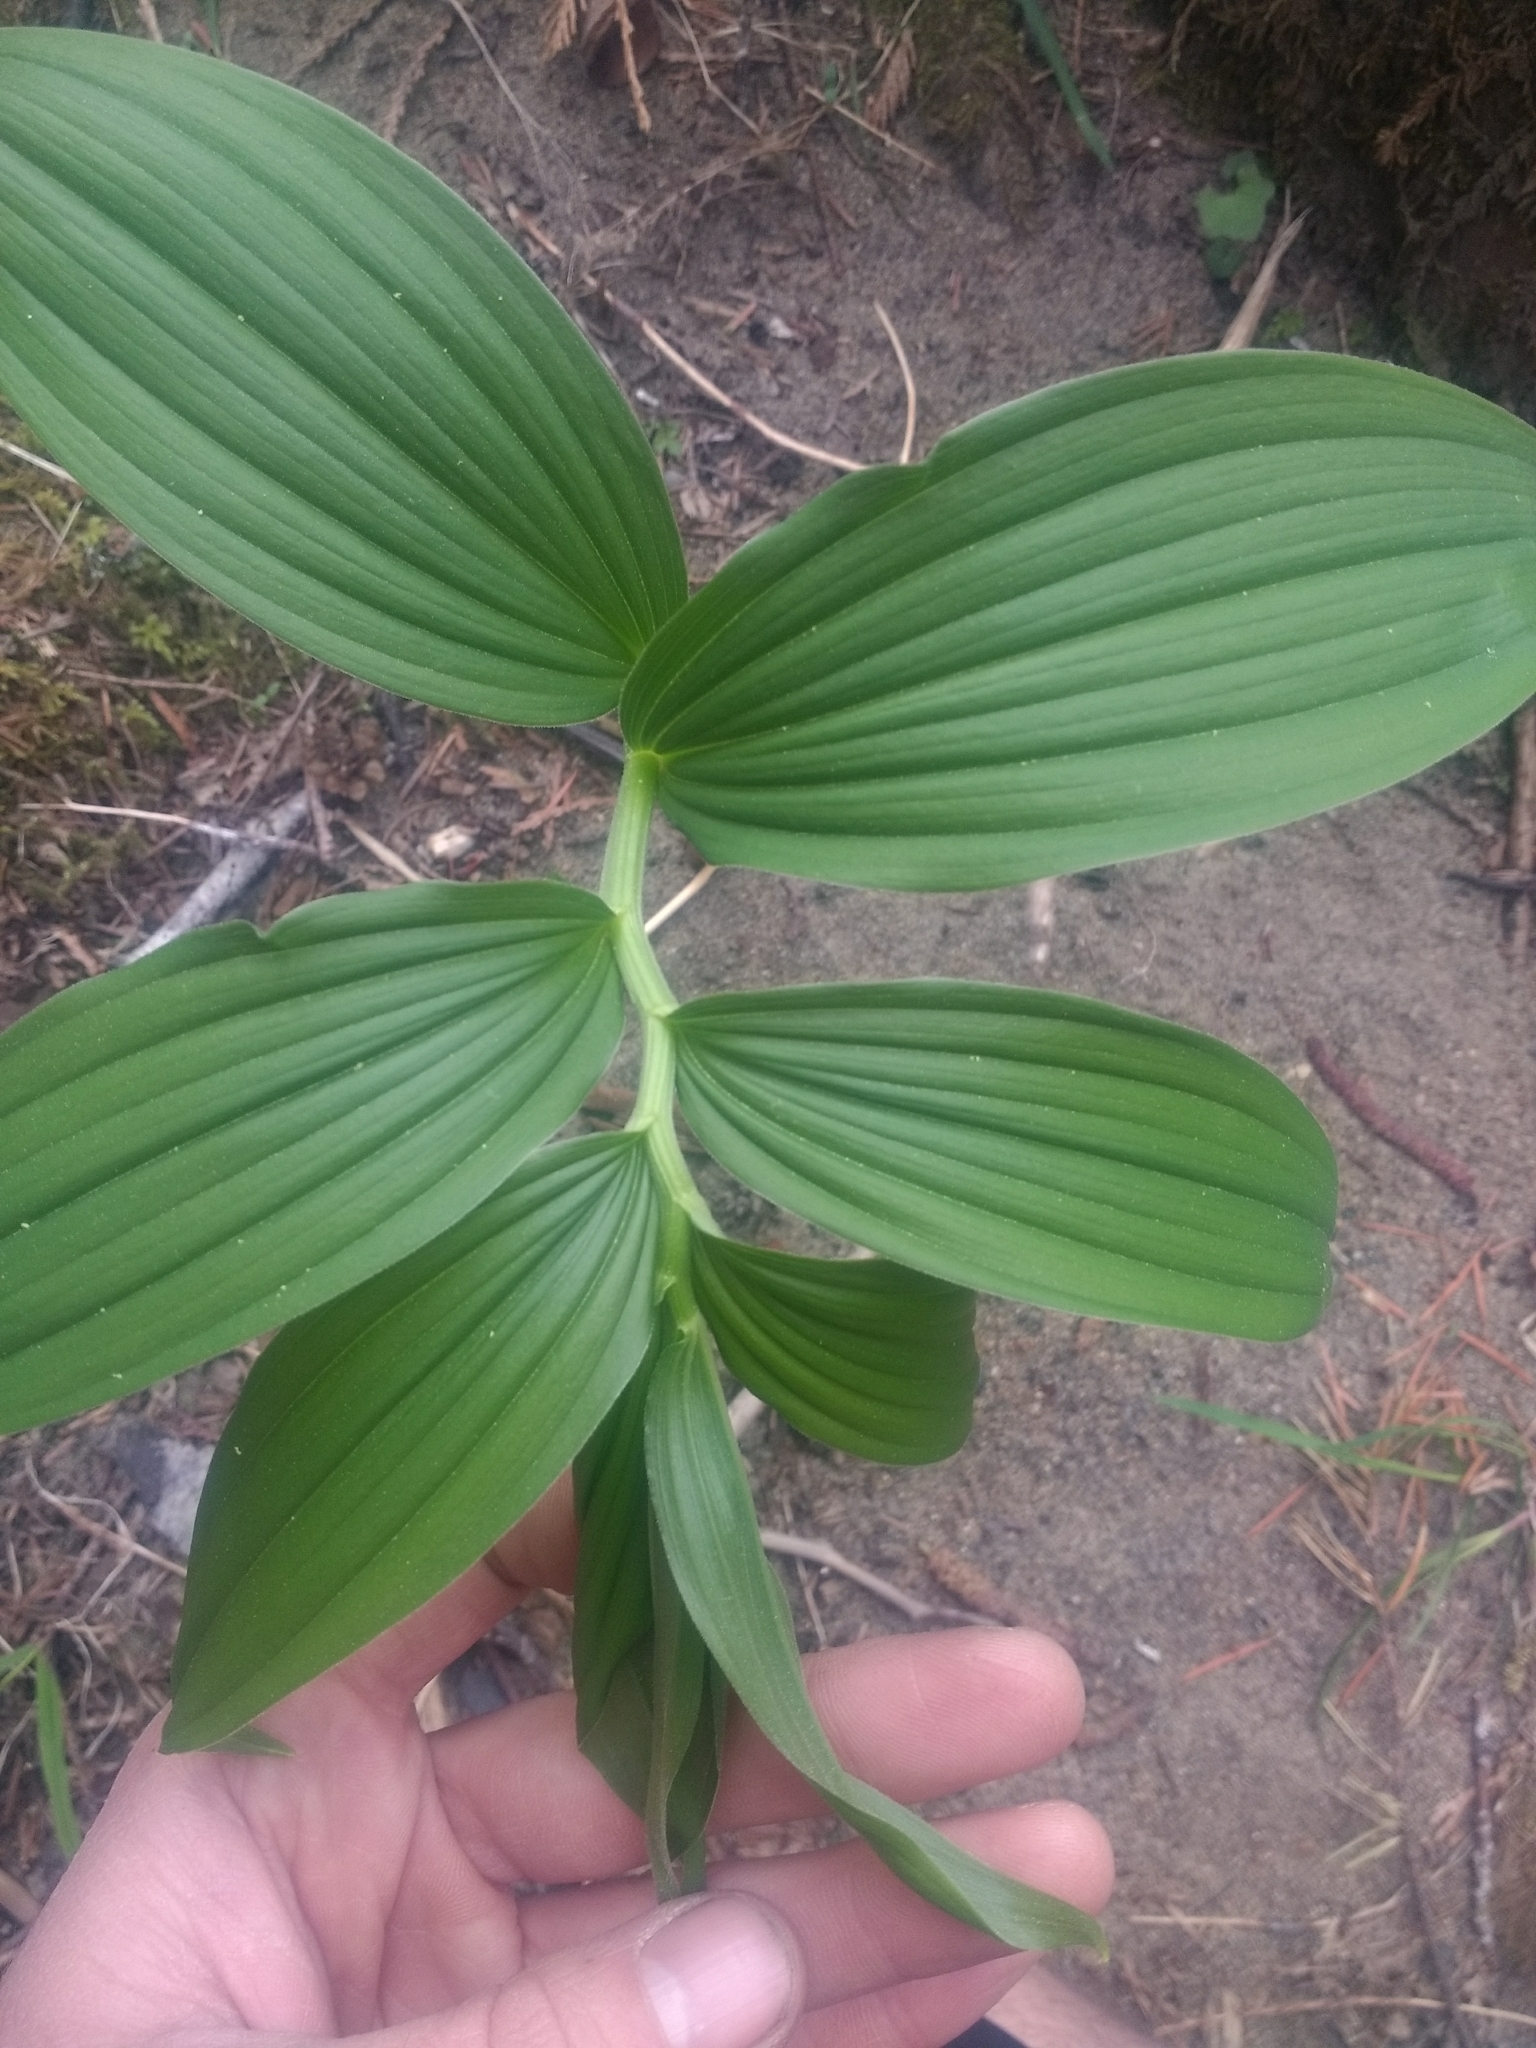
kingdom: Plantae
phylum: Tracheophyta
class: Liliopsida
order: Asparagales
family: Asparagaceae
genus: Maianthemum
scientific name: Maianthemum racemosum
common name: False spikenard
